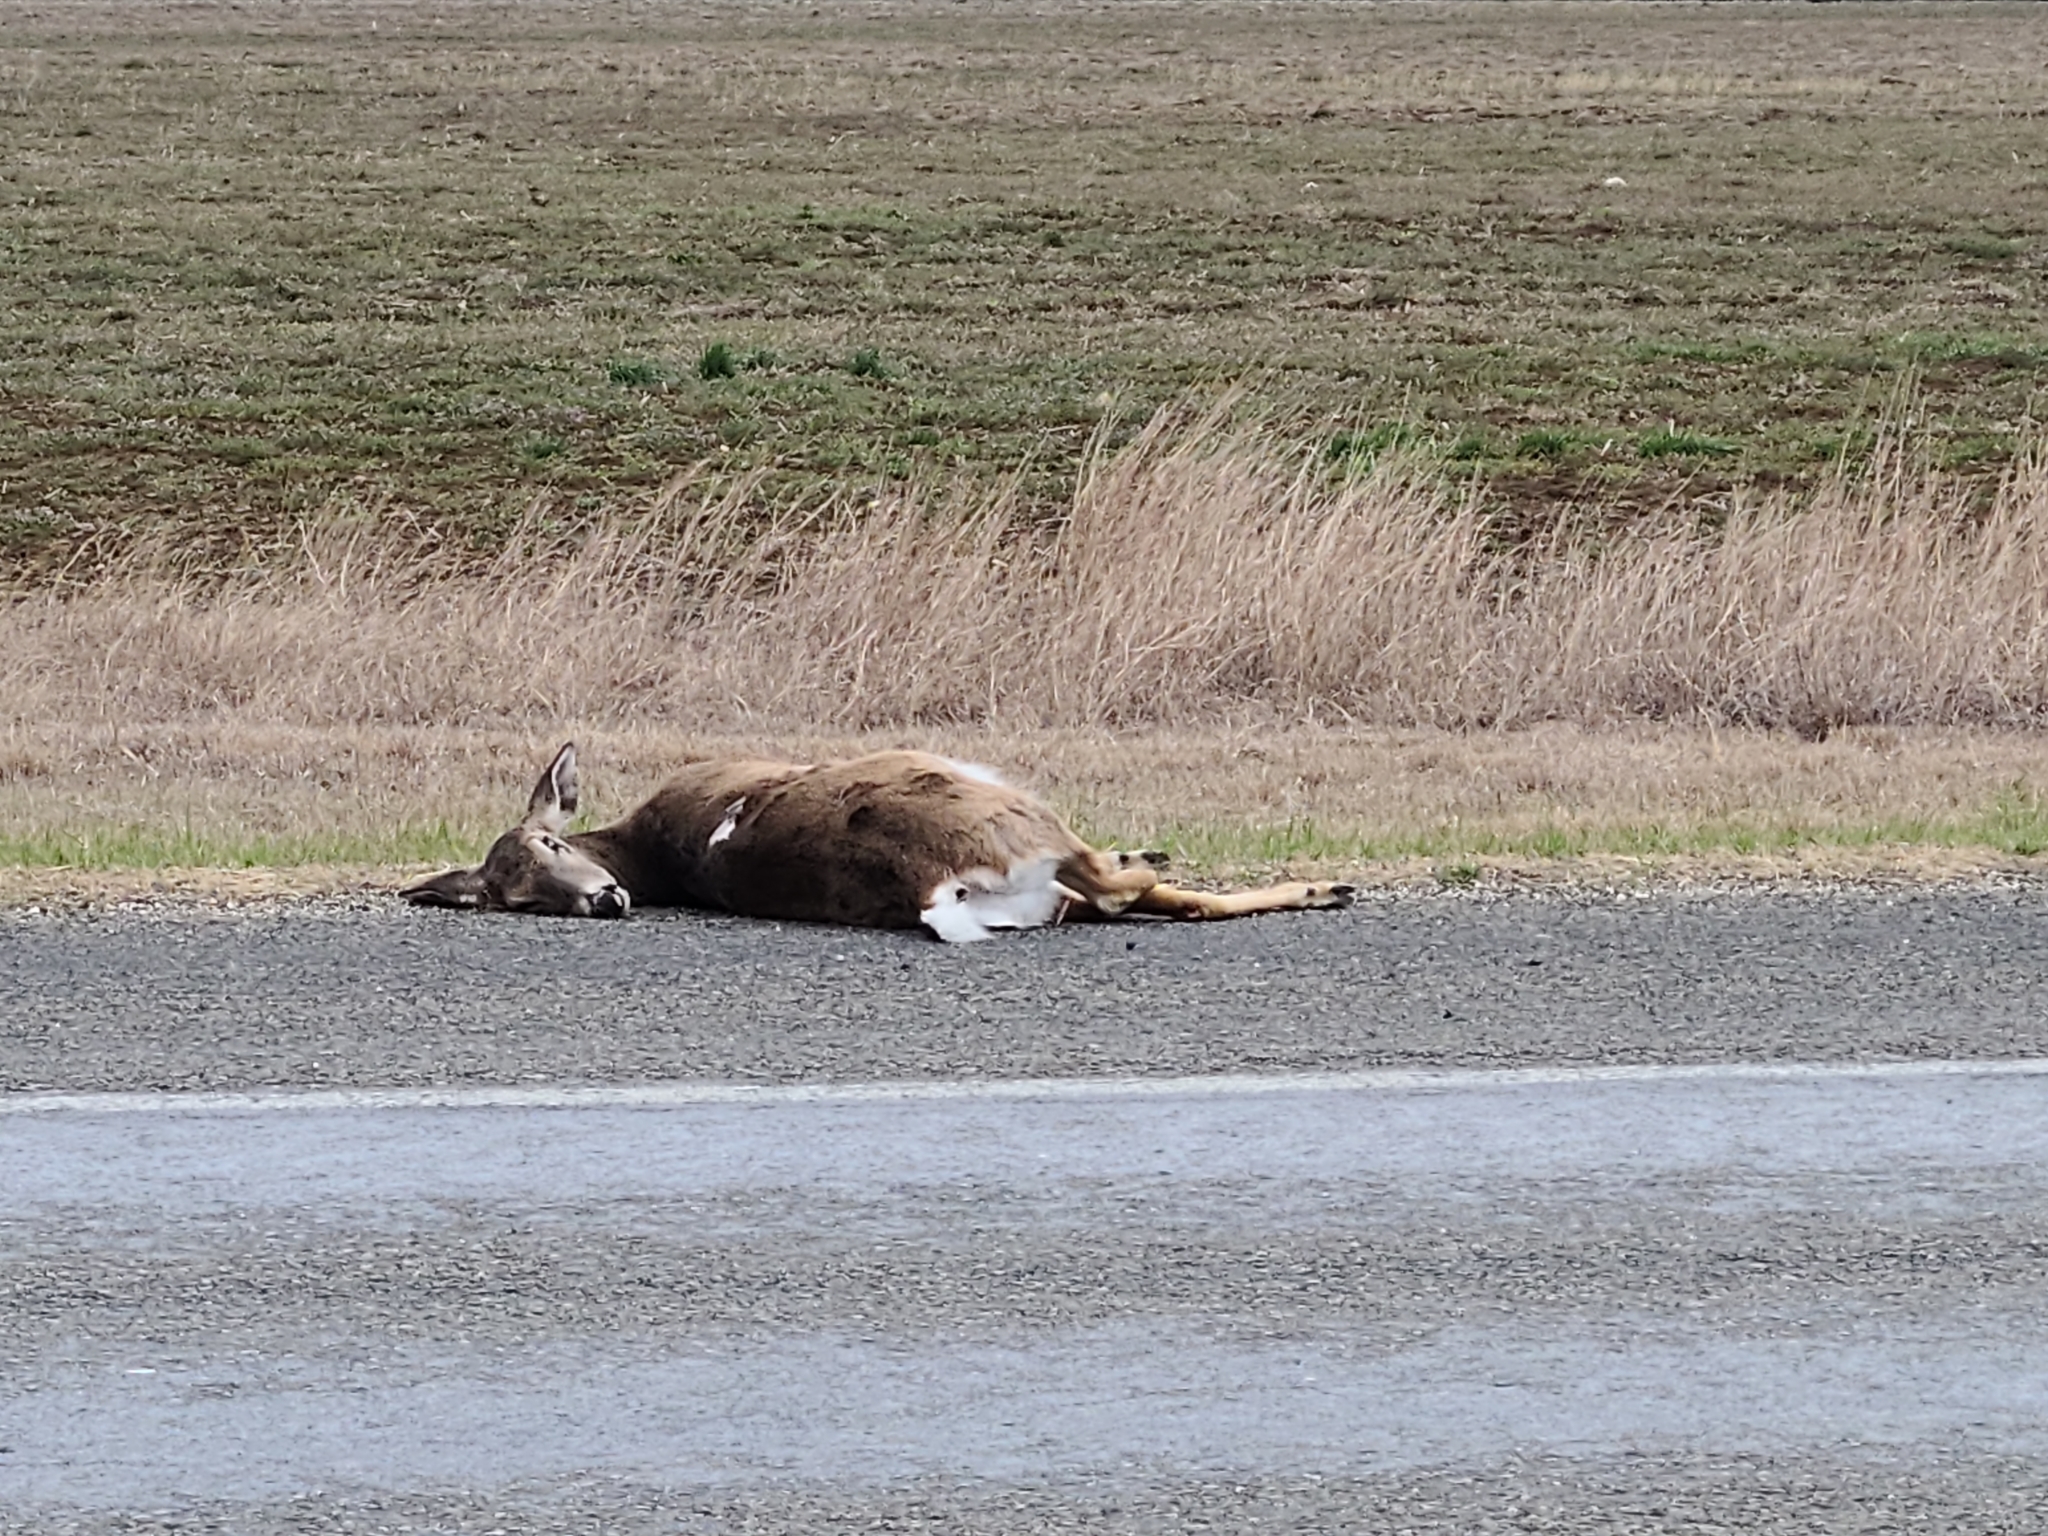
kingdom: Animalia
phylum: Chordata
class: Mammalia
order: Artiodactyla
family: Cervidae
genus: Odocoileus
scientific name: Odocoileus virginianus
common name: White-tailed deer
